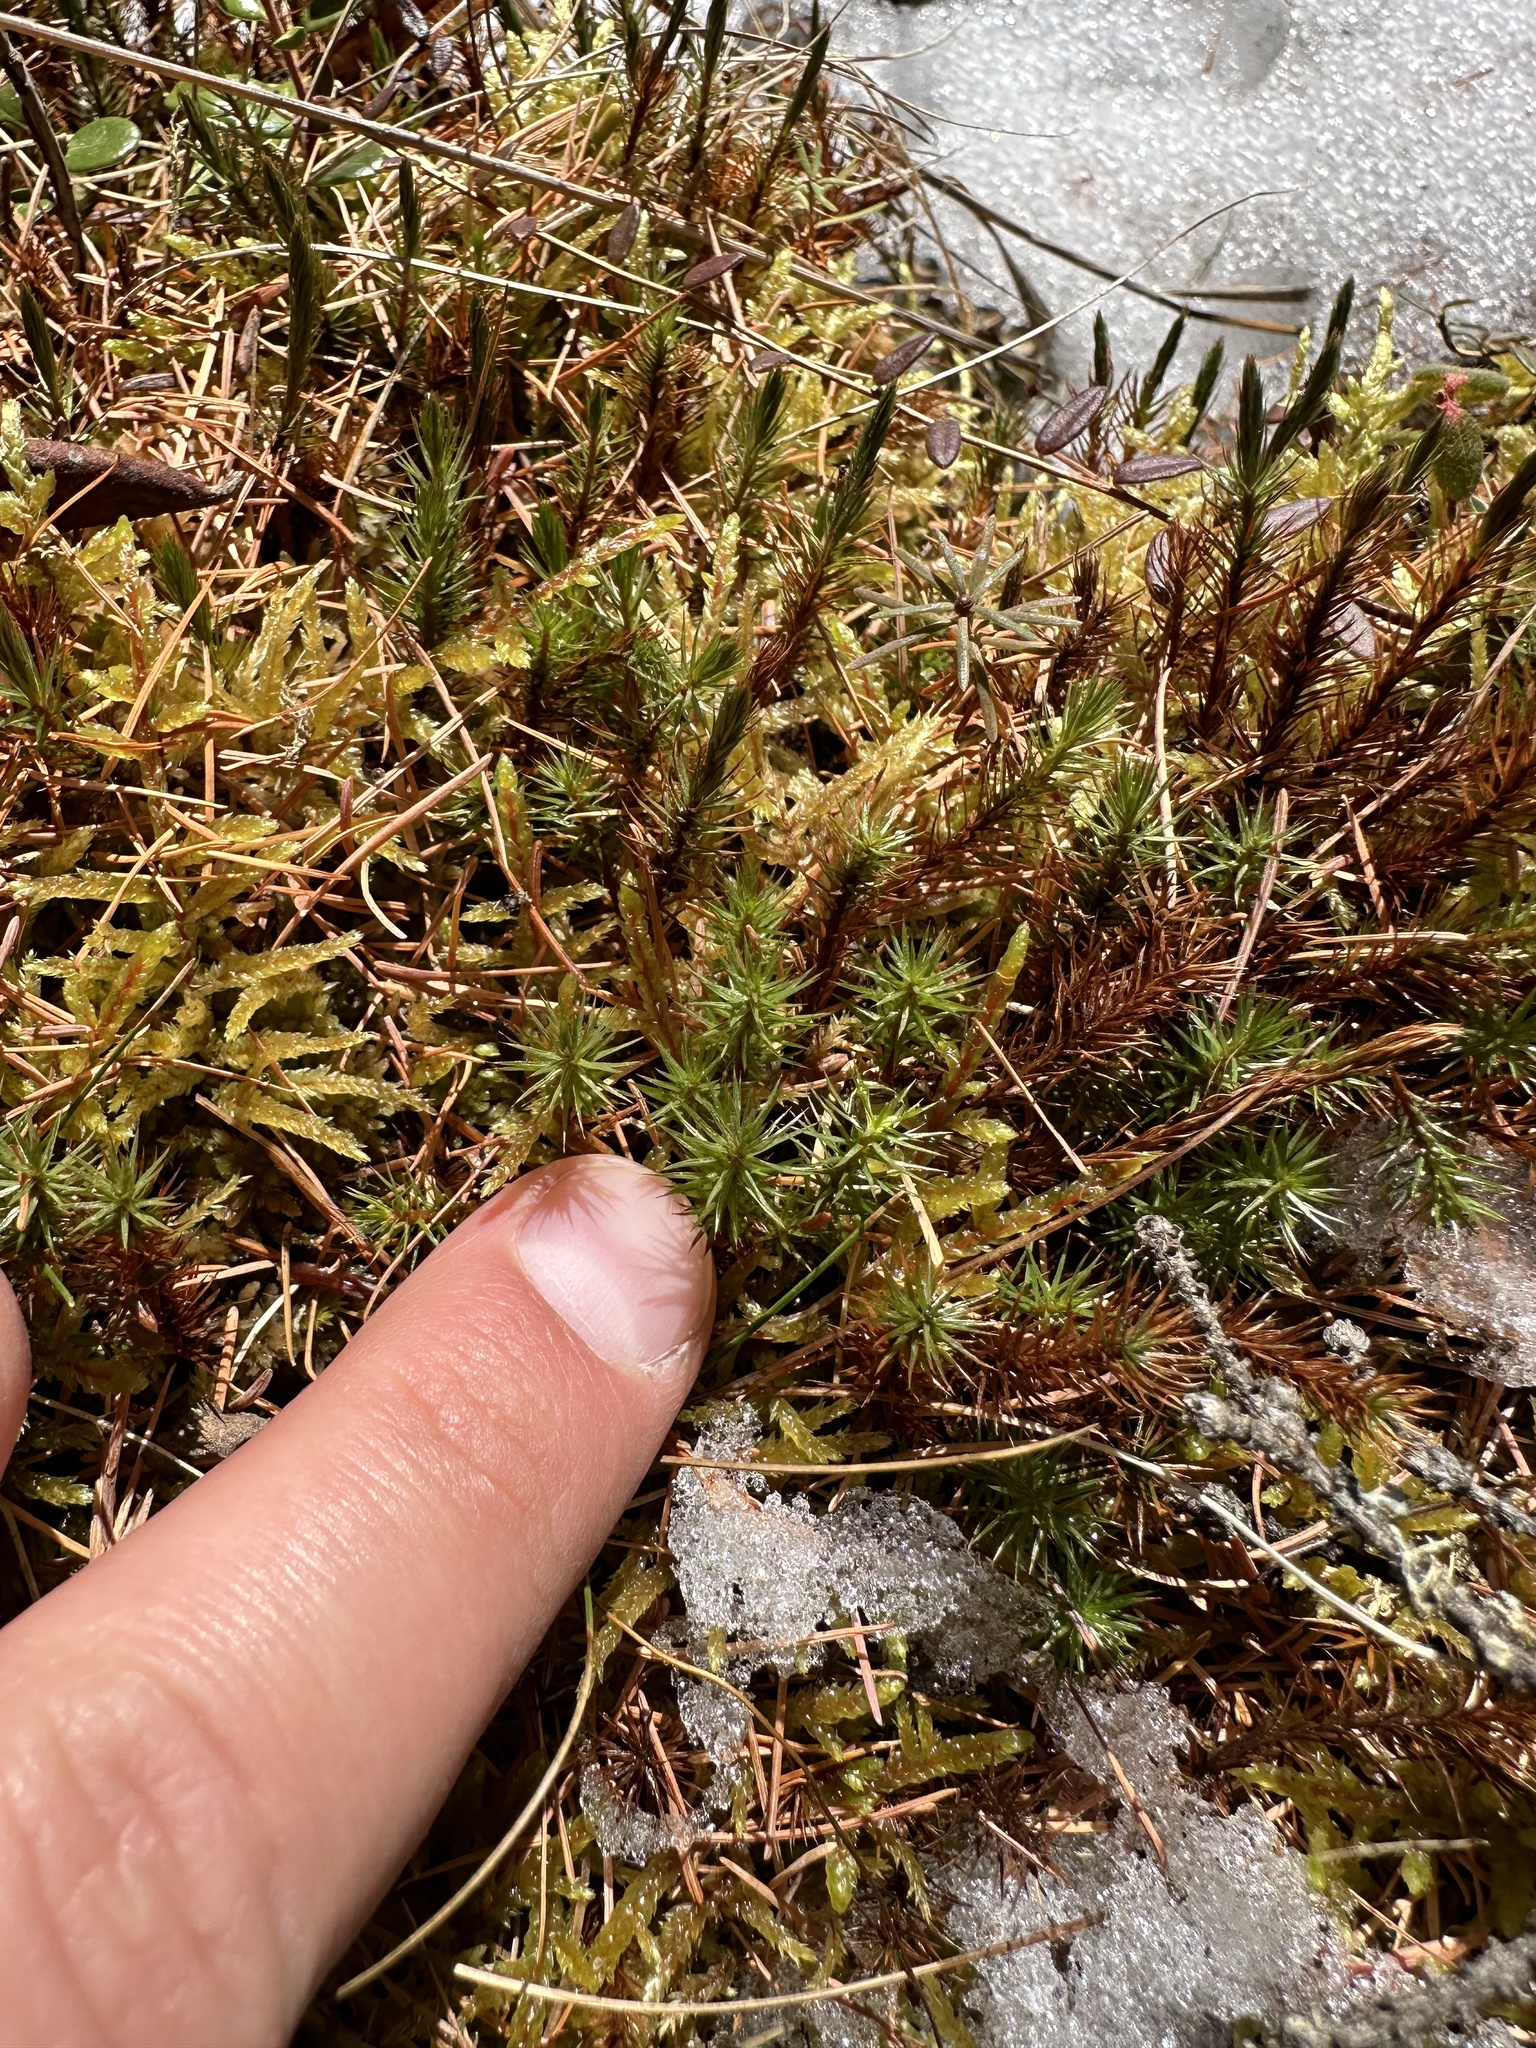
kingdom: Plantae
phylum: Bryophyta
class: Polytrichopsida
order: Polytrichales
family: Polytrichaceae
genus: Polytrichum
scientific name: Polytrichum juniperinum
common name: Juniper haircap moss
